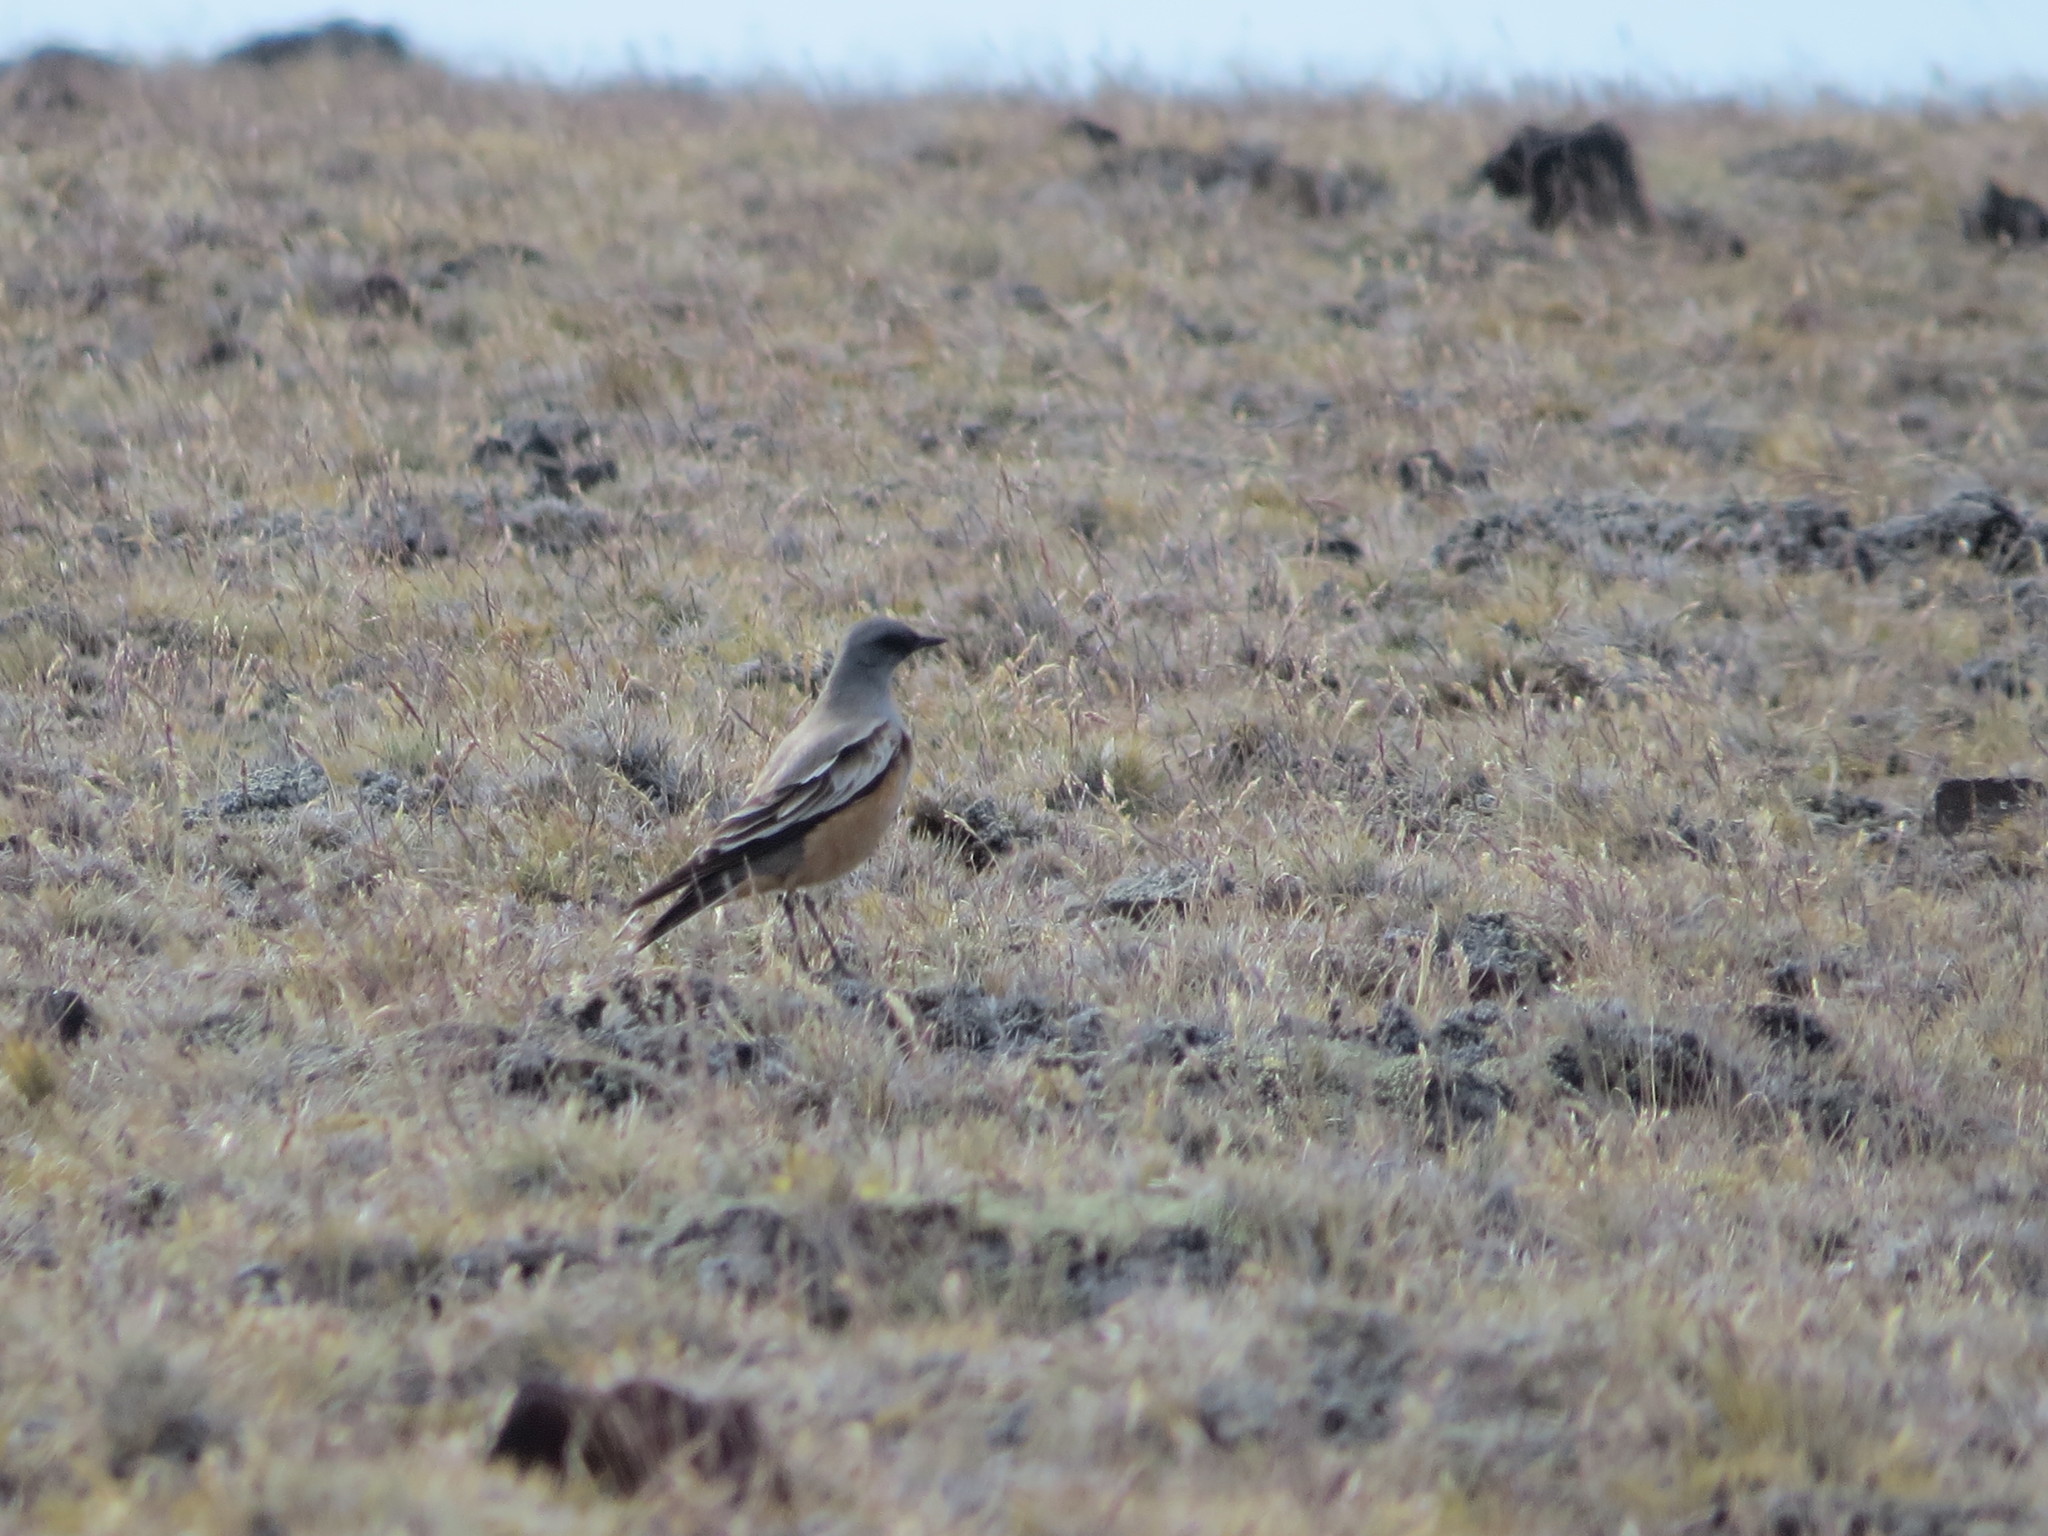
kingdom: Animalia
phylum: Chordata
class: Aves
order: Passeriformes
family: Tyrannidae
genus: Neoxolmis
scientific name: Neoxolmis rufiventris
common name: Chocolate-vented tyrant
